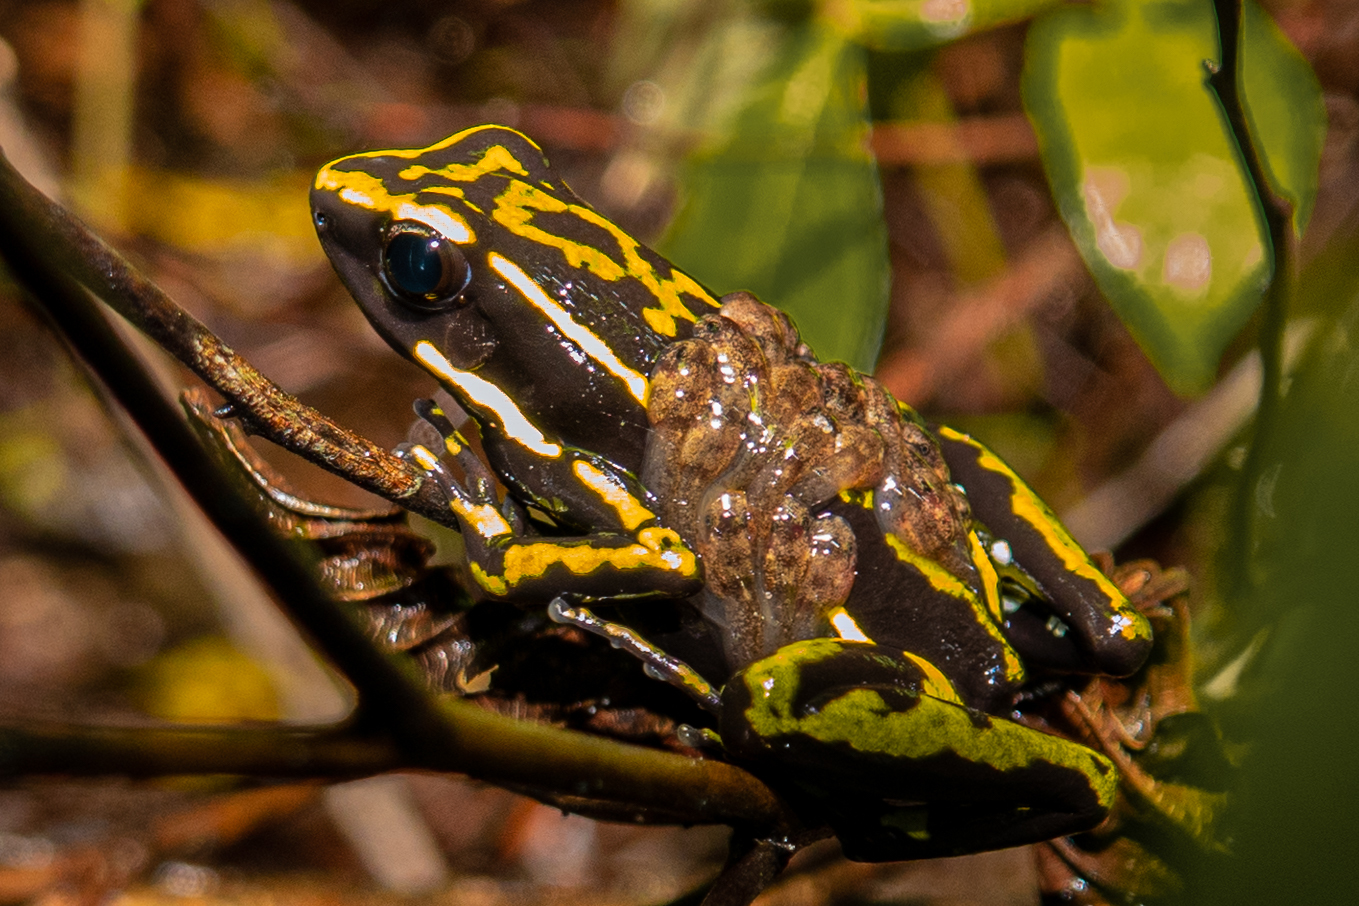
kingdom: Animalia
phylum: Chordata
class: Amphibia
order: Anura
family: Dendrobatidae
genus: Ameerega
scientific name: Ameerega trivittata
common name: Three-striped arrow-poison frog
